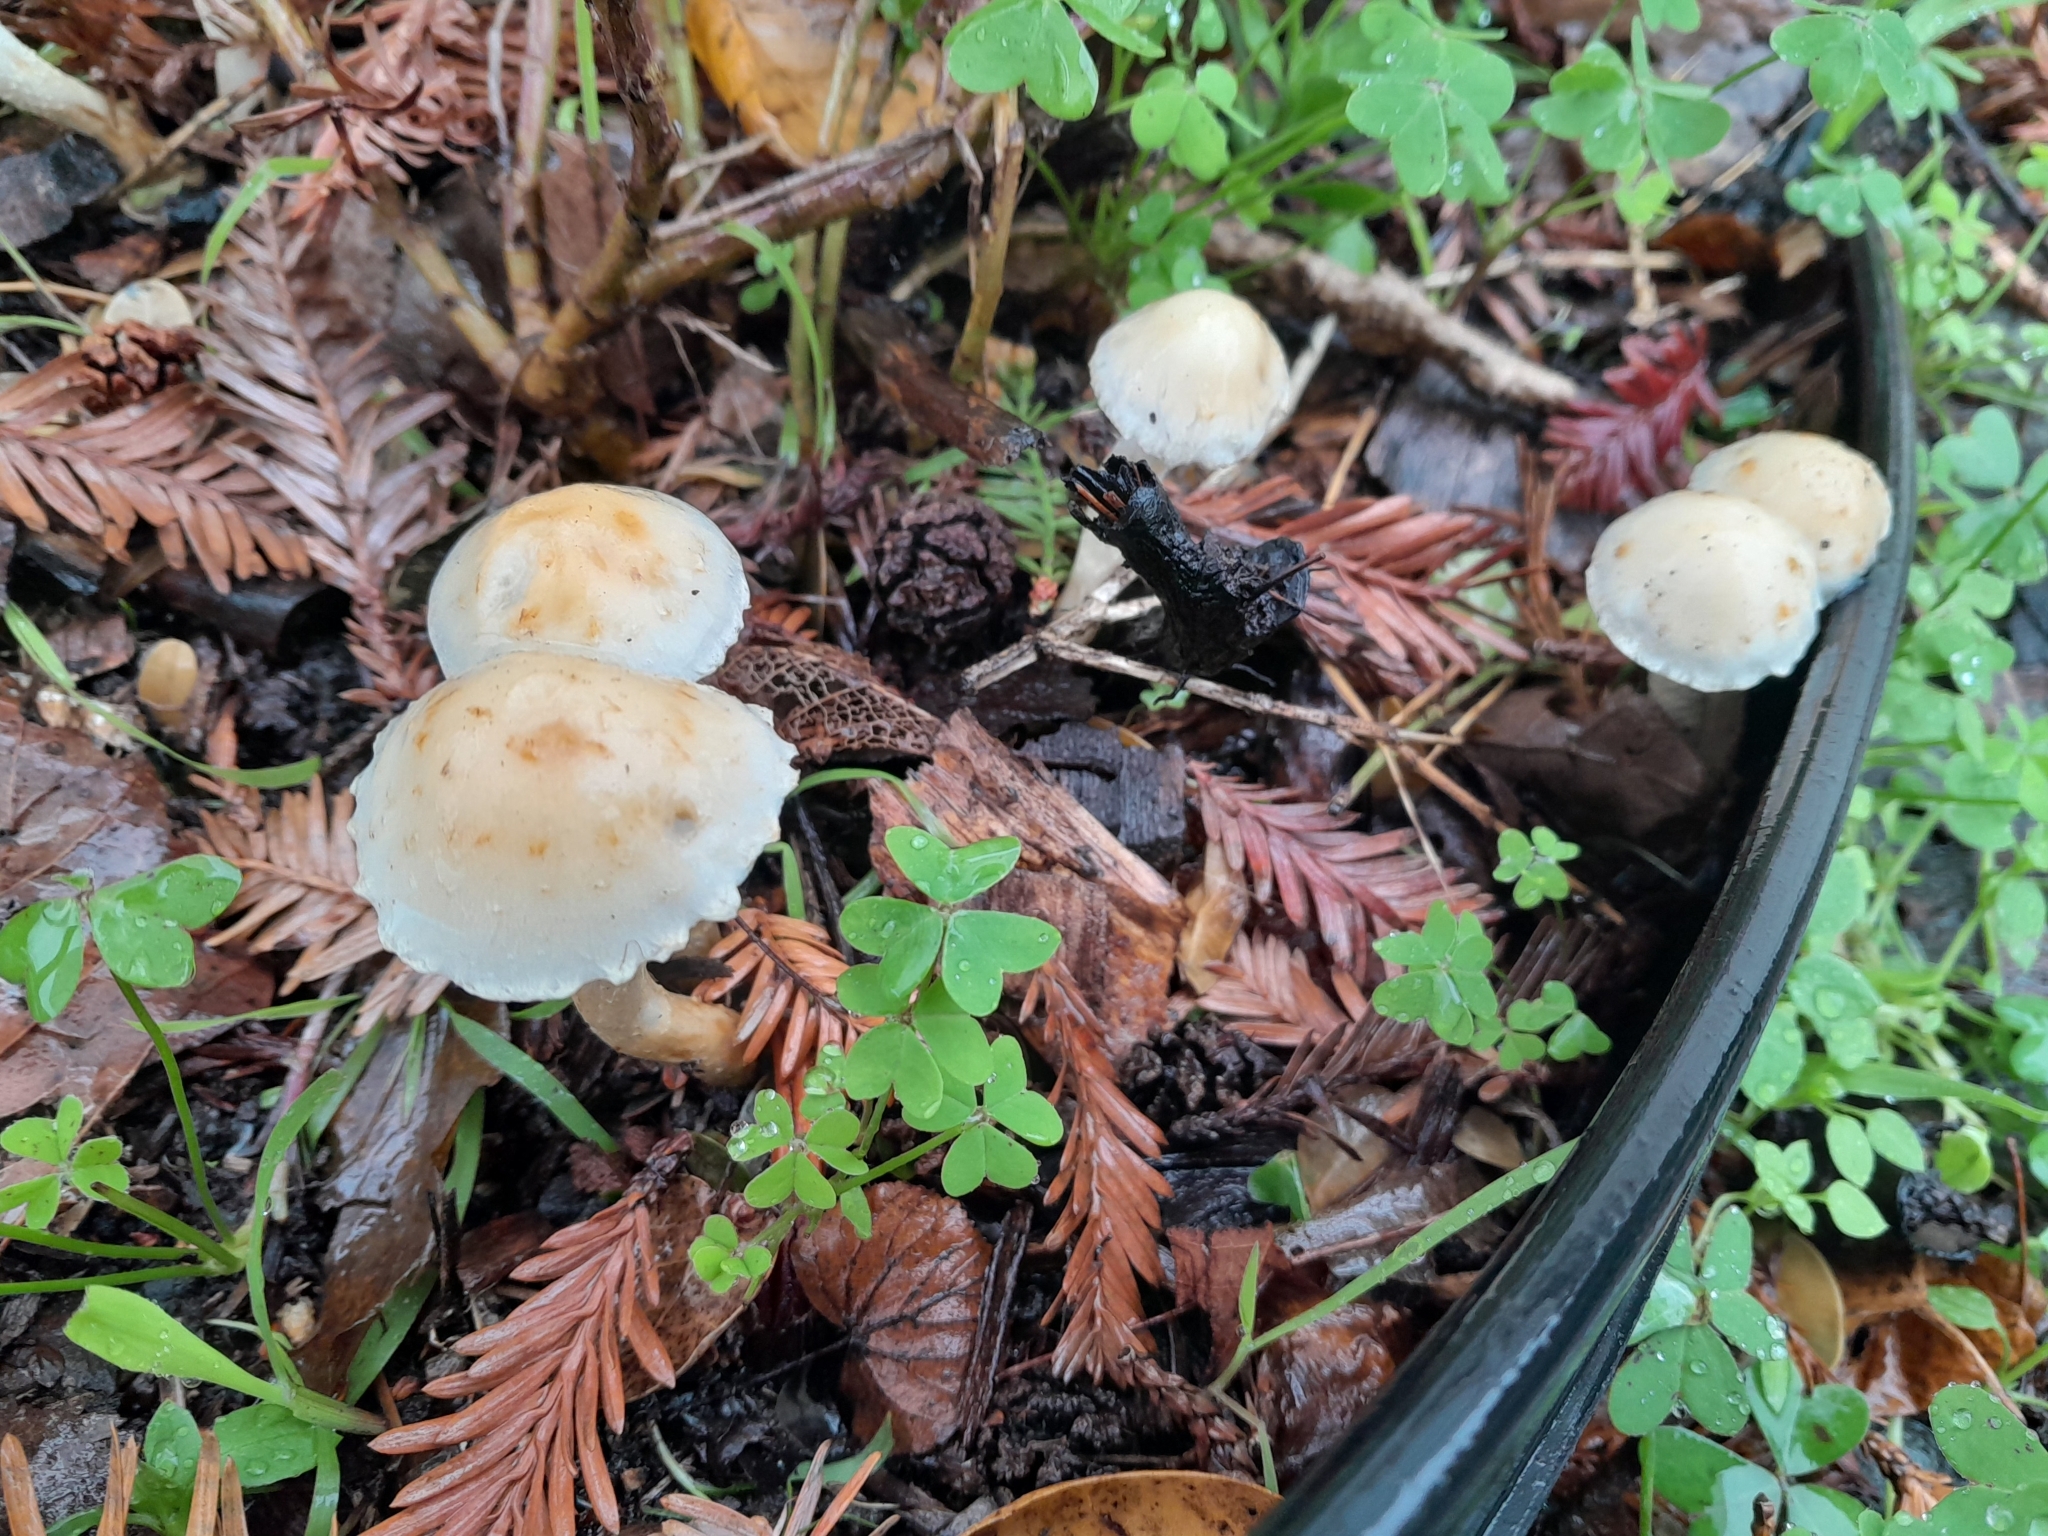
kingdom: Fungi
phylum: Basidiomycota
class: Agaricomycetes
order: Agaricales
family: Strophariaceae
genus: Leratiomyces
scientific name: Leratiomyces percevalii
